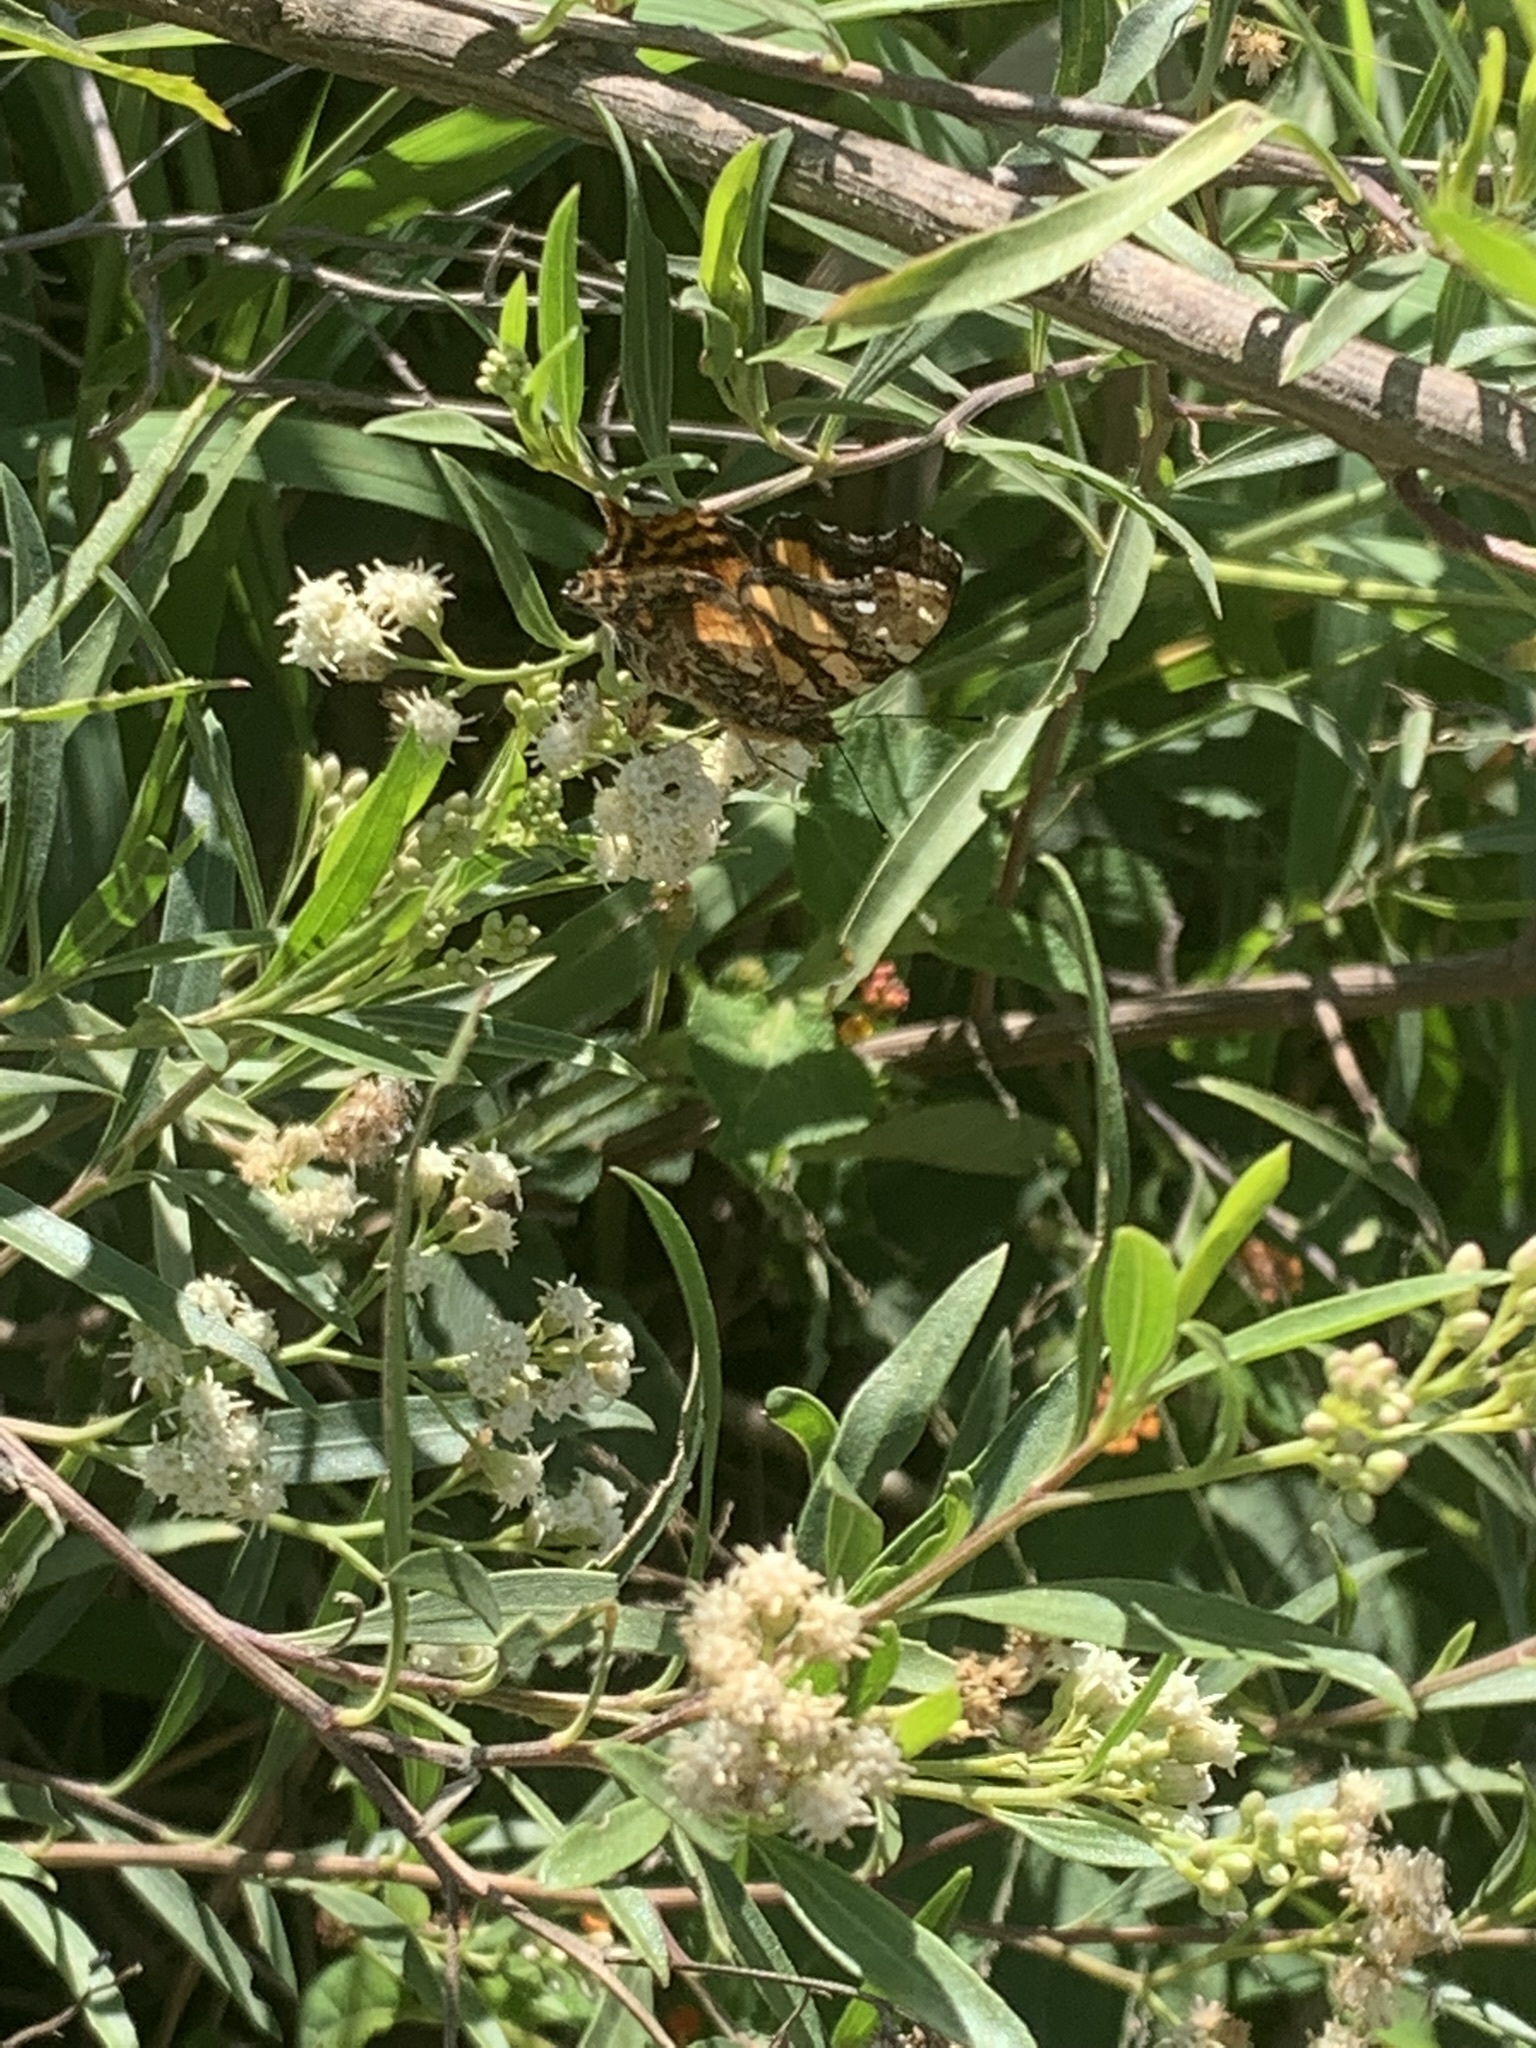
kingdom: Animalia
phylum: Arthropoda
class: Insecta
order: Lepidoptera
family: Nymphalidae
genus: Hypanartia
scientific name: Hypanartia bella
